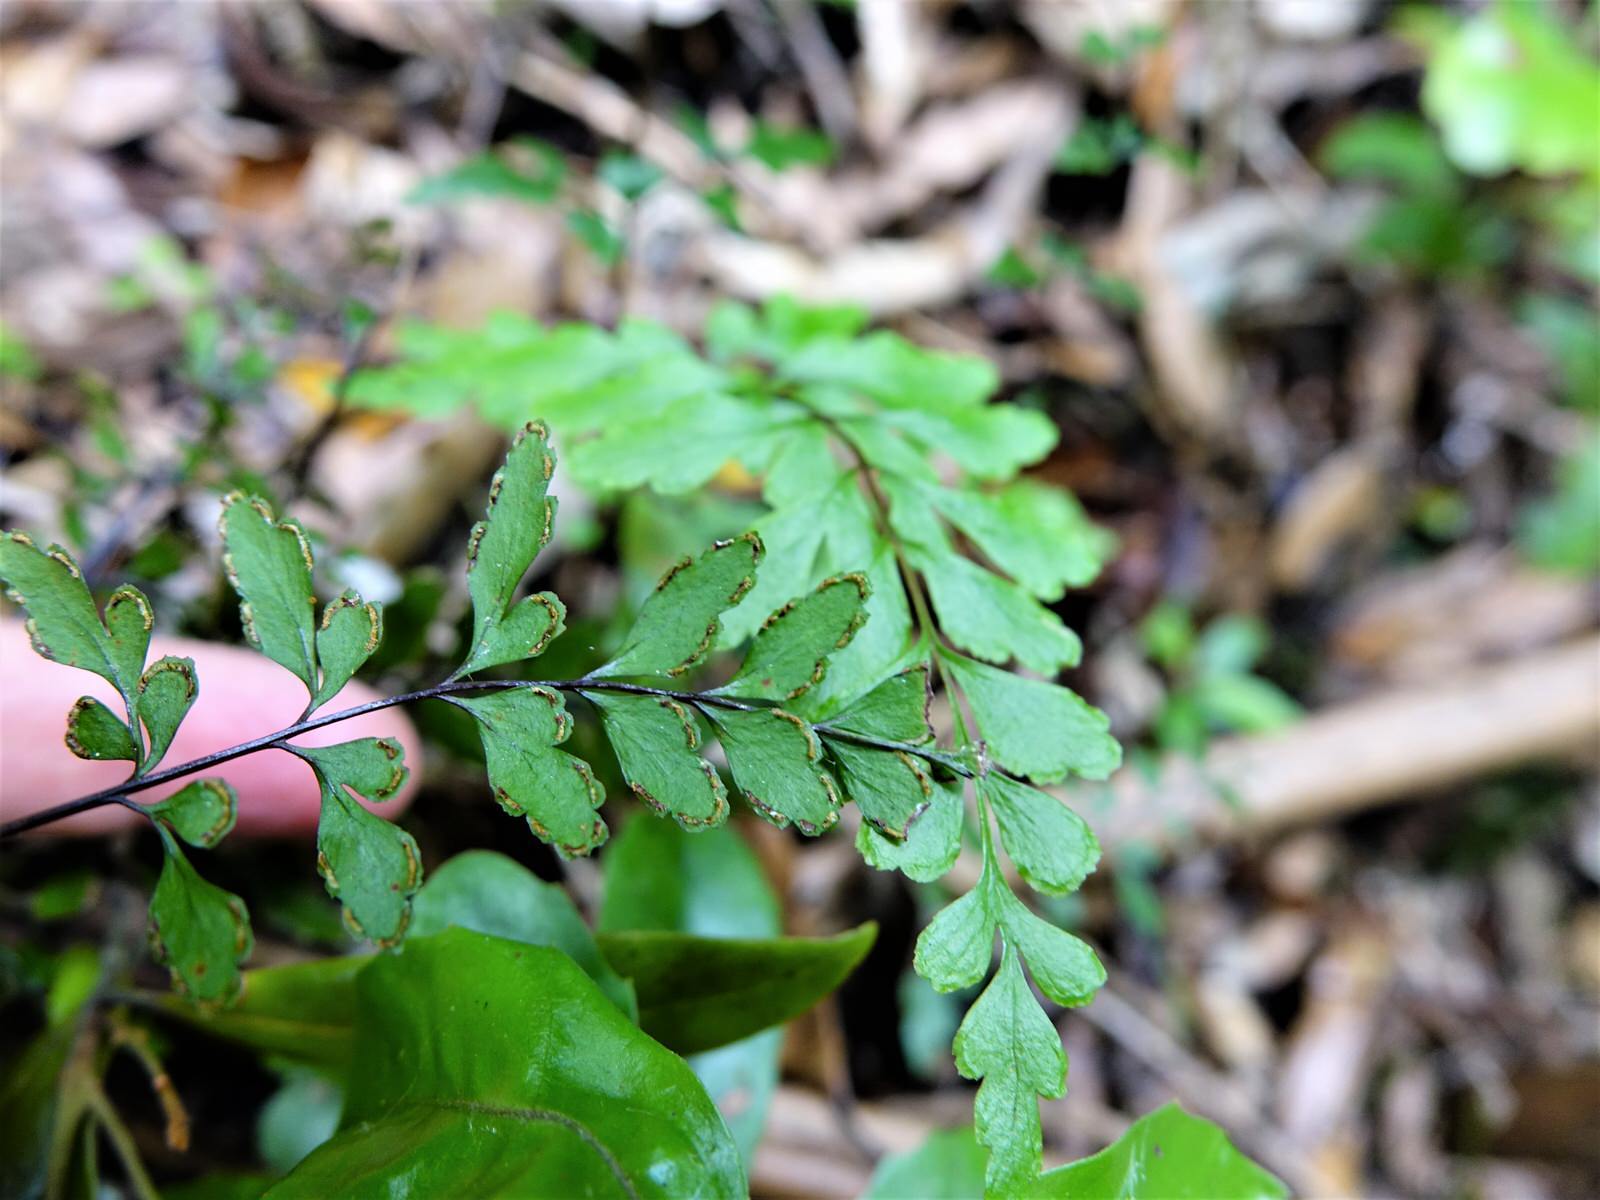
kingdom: Plantae
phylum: Tracheophyta
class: Polypodiopsida
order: Polypodiales
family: Lindsaeaceae
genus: Lindsaea
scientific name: Lindsaea trichomanoides
